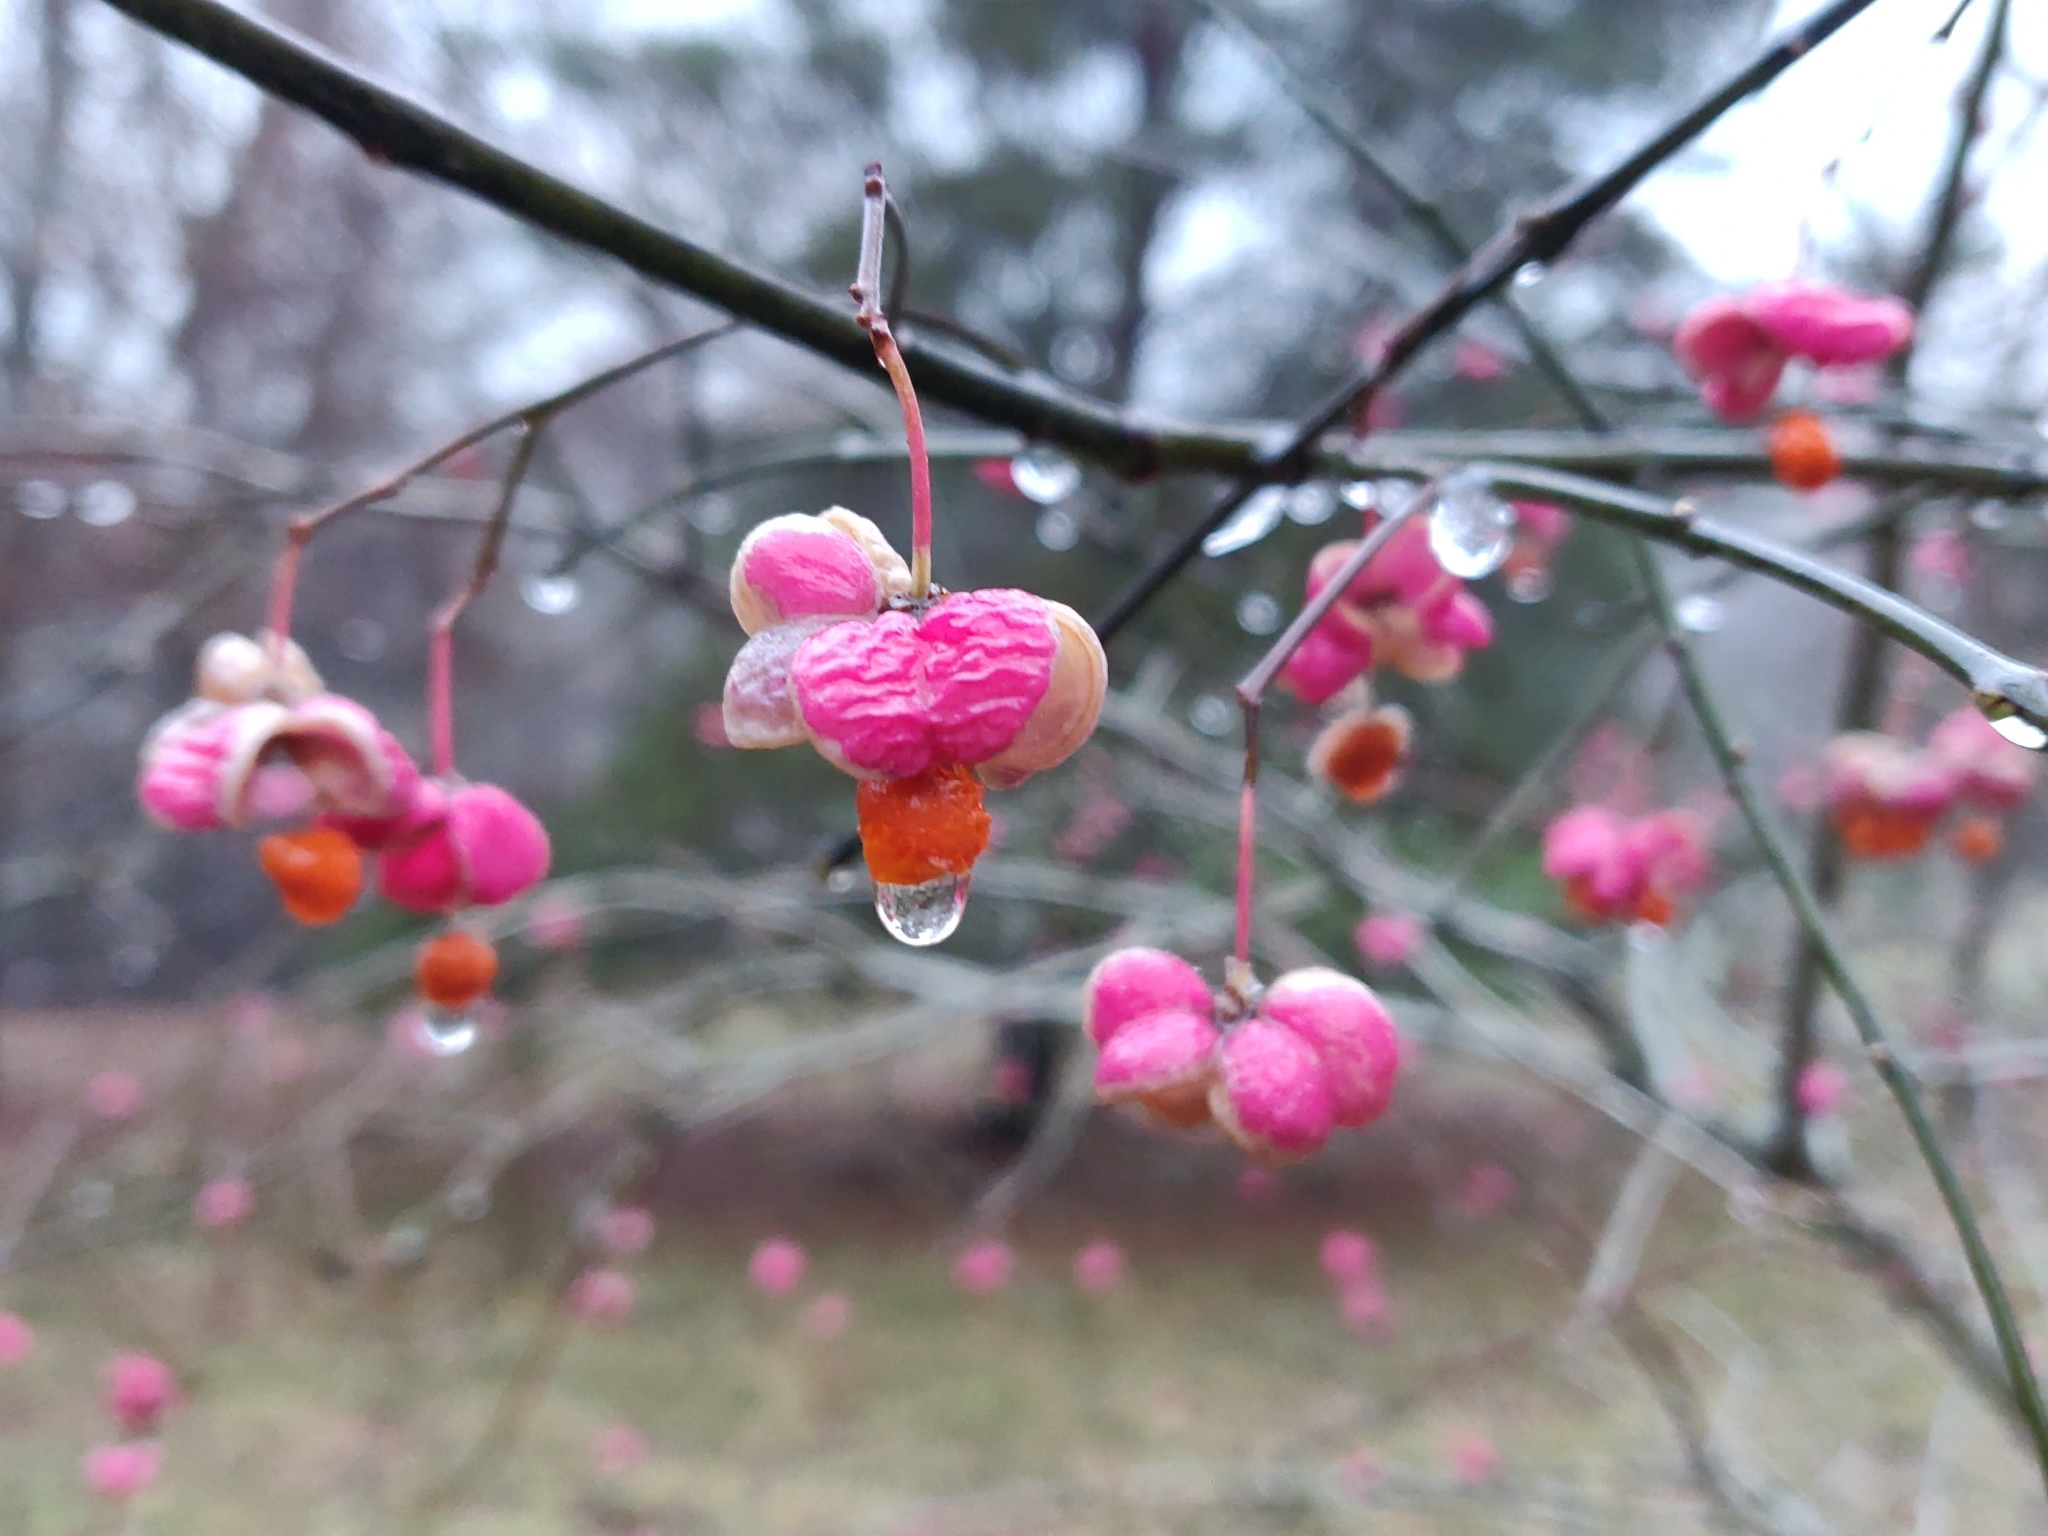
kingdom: Plantae
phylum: Tracheophyta
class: Magnoliopsida
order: Celastrales
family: Celastraceae
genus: Euonymus
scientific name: Euonymus europaeus
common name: Spindle
